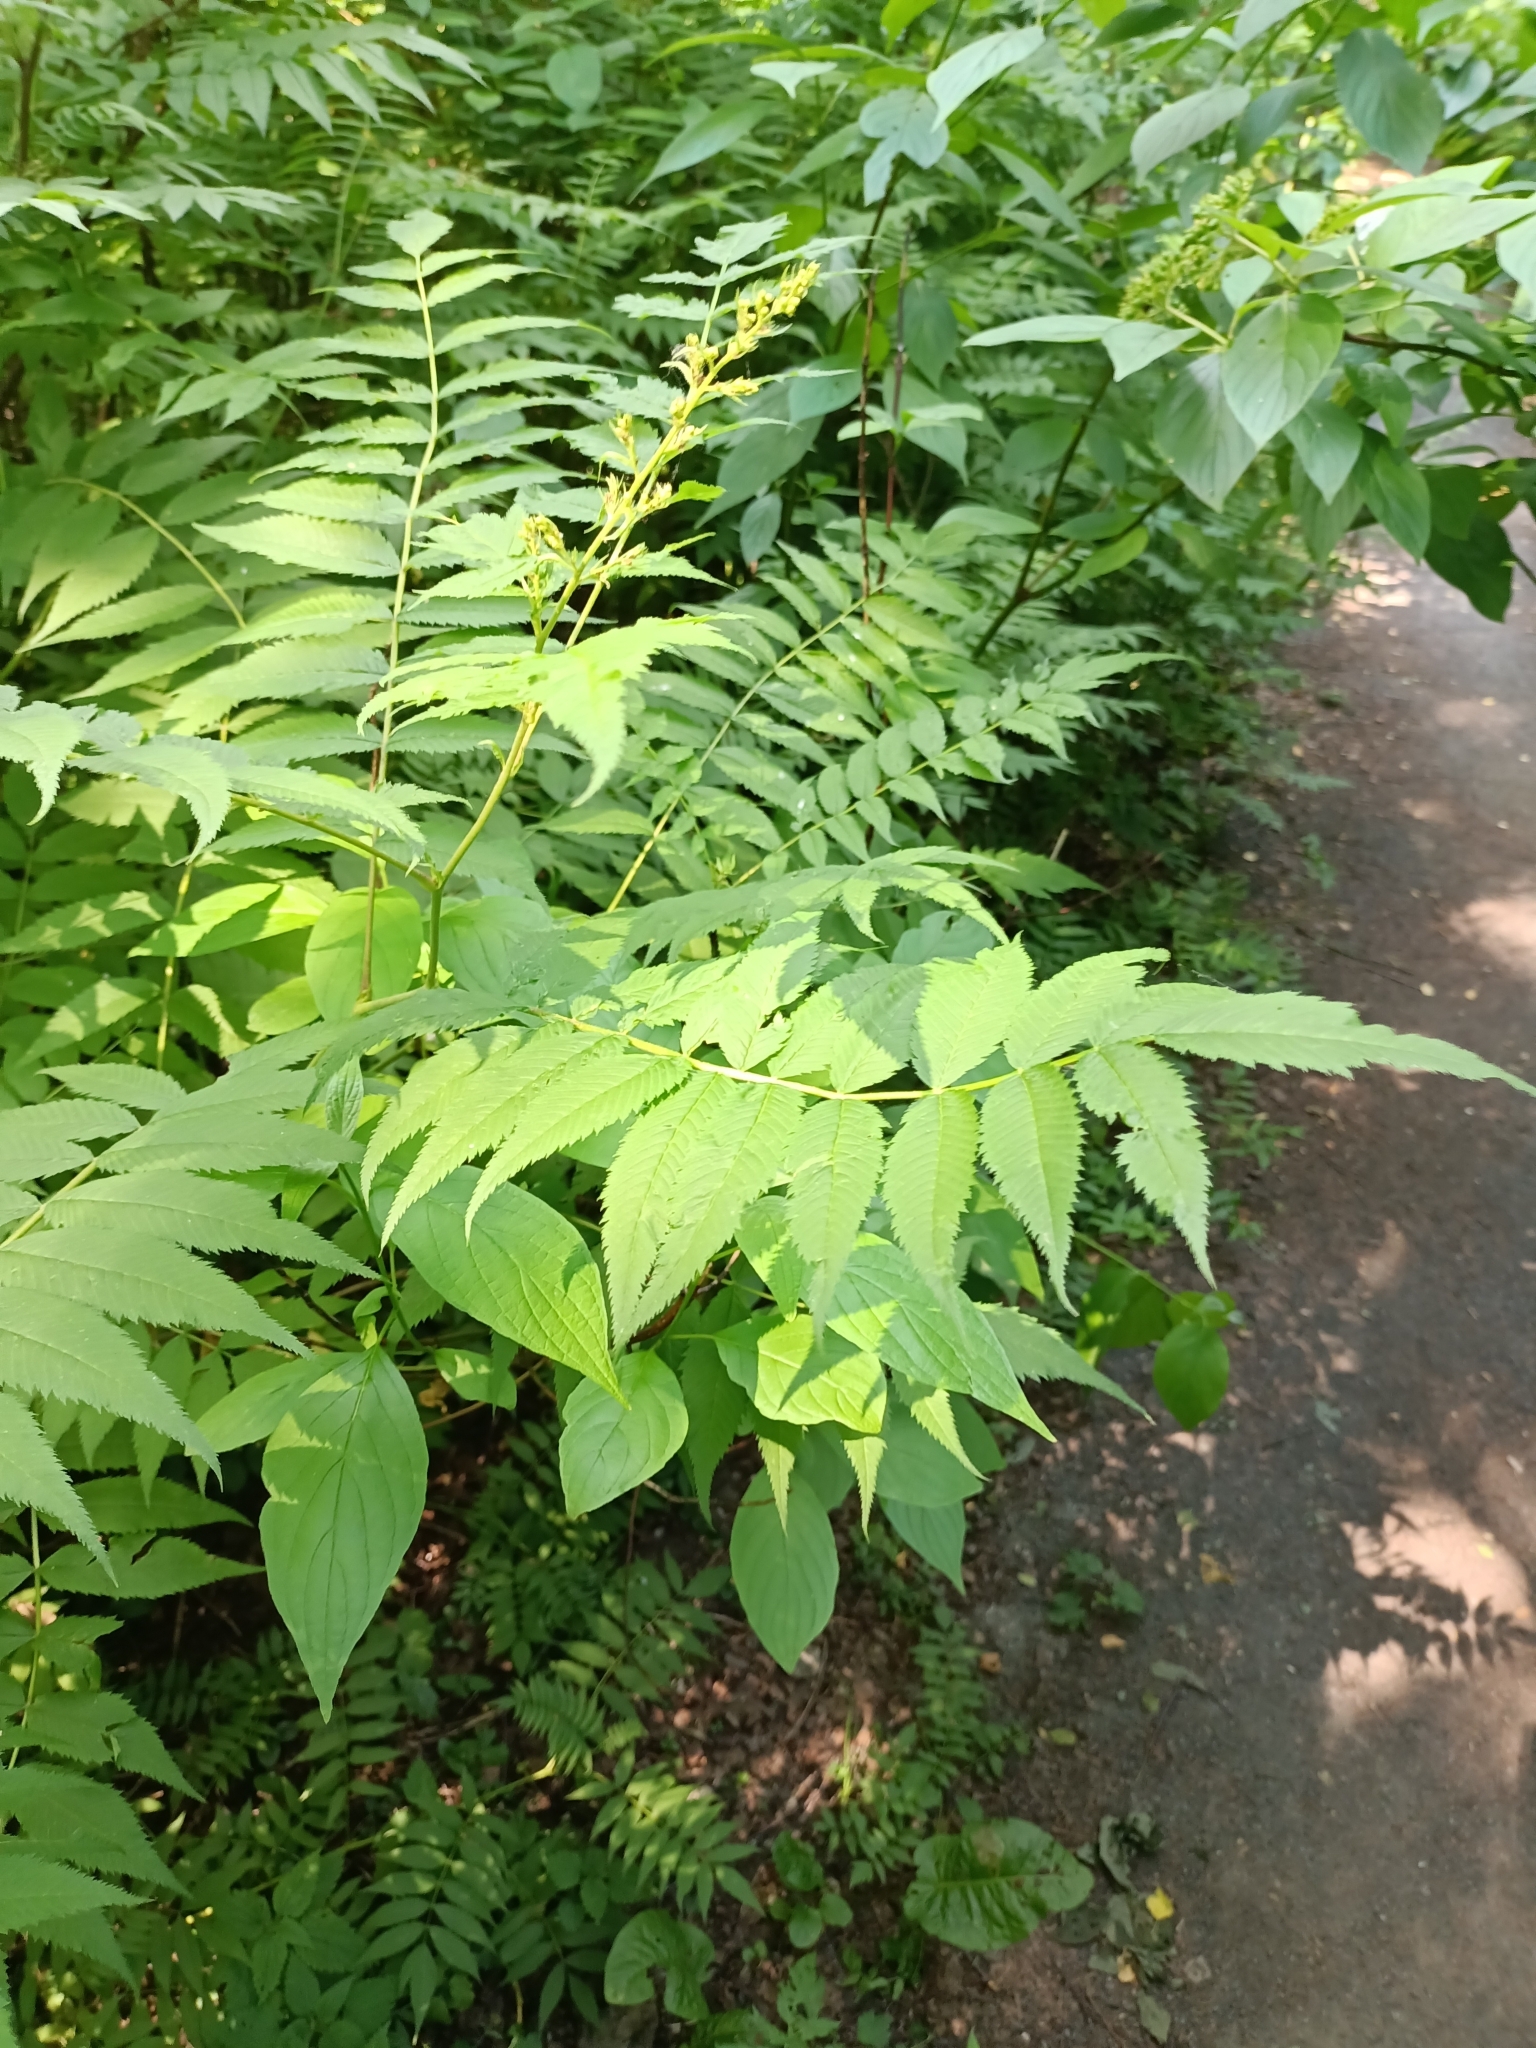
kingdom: Plantae
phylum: Tracheophyta
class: Magnoliopsida
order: Rosales
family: Rosaceae
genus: Sorbaria
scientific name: Sorbaria sorbifolia
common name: False spiraea
